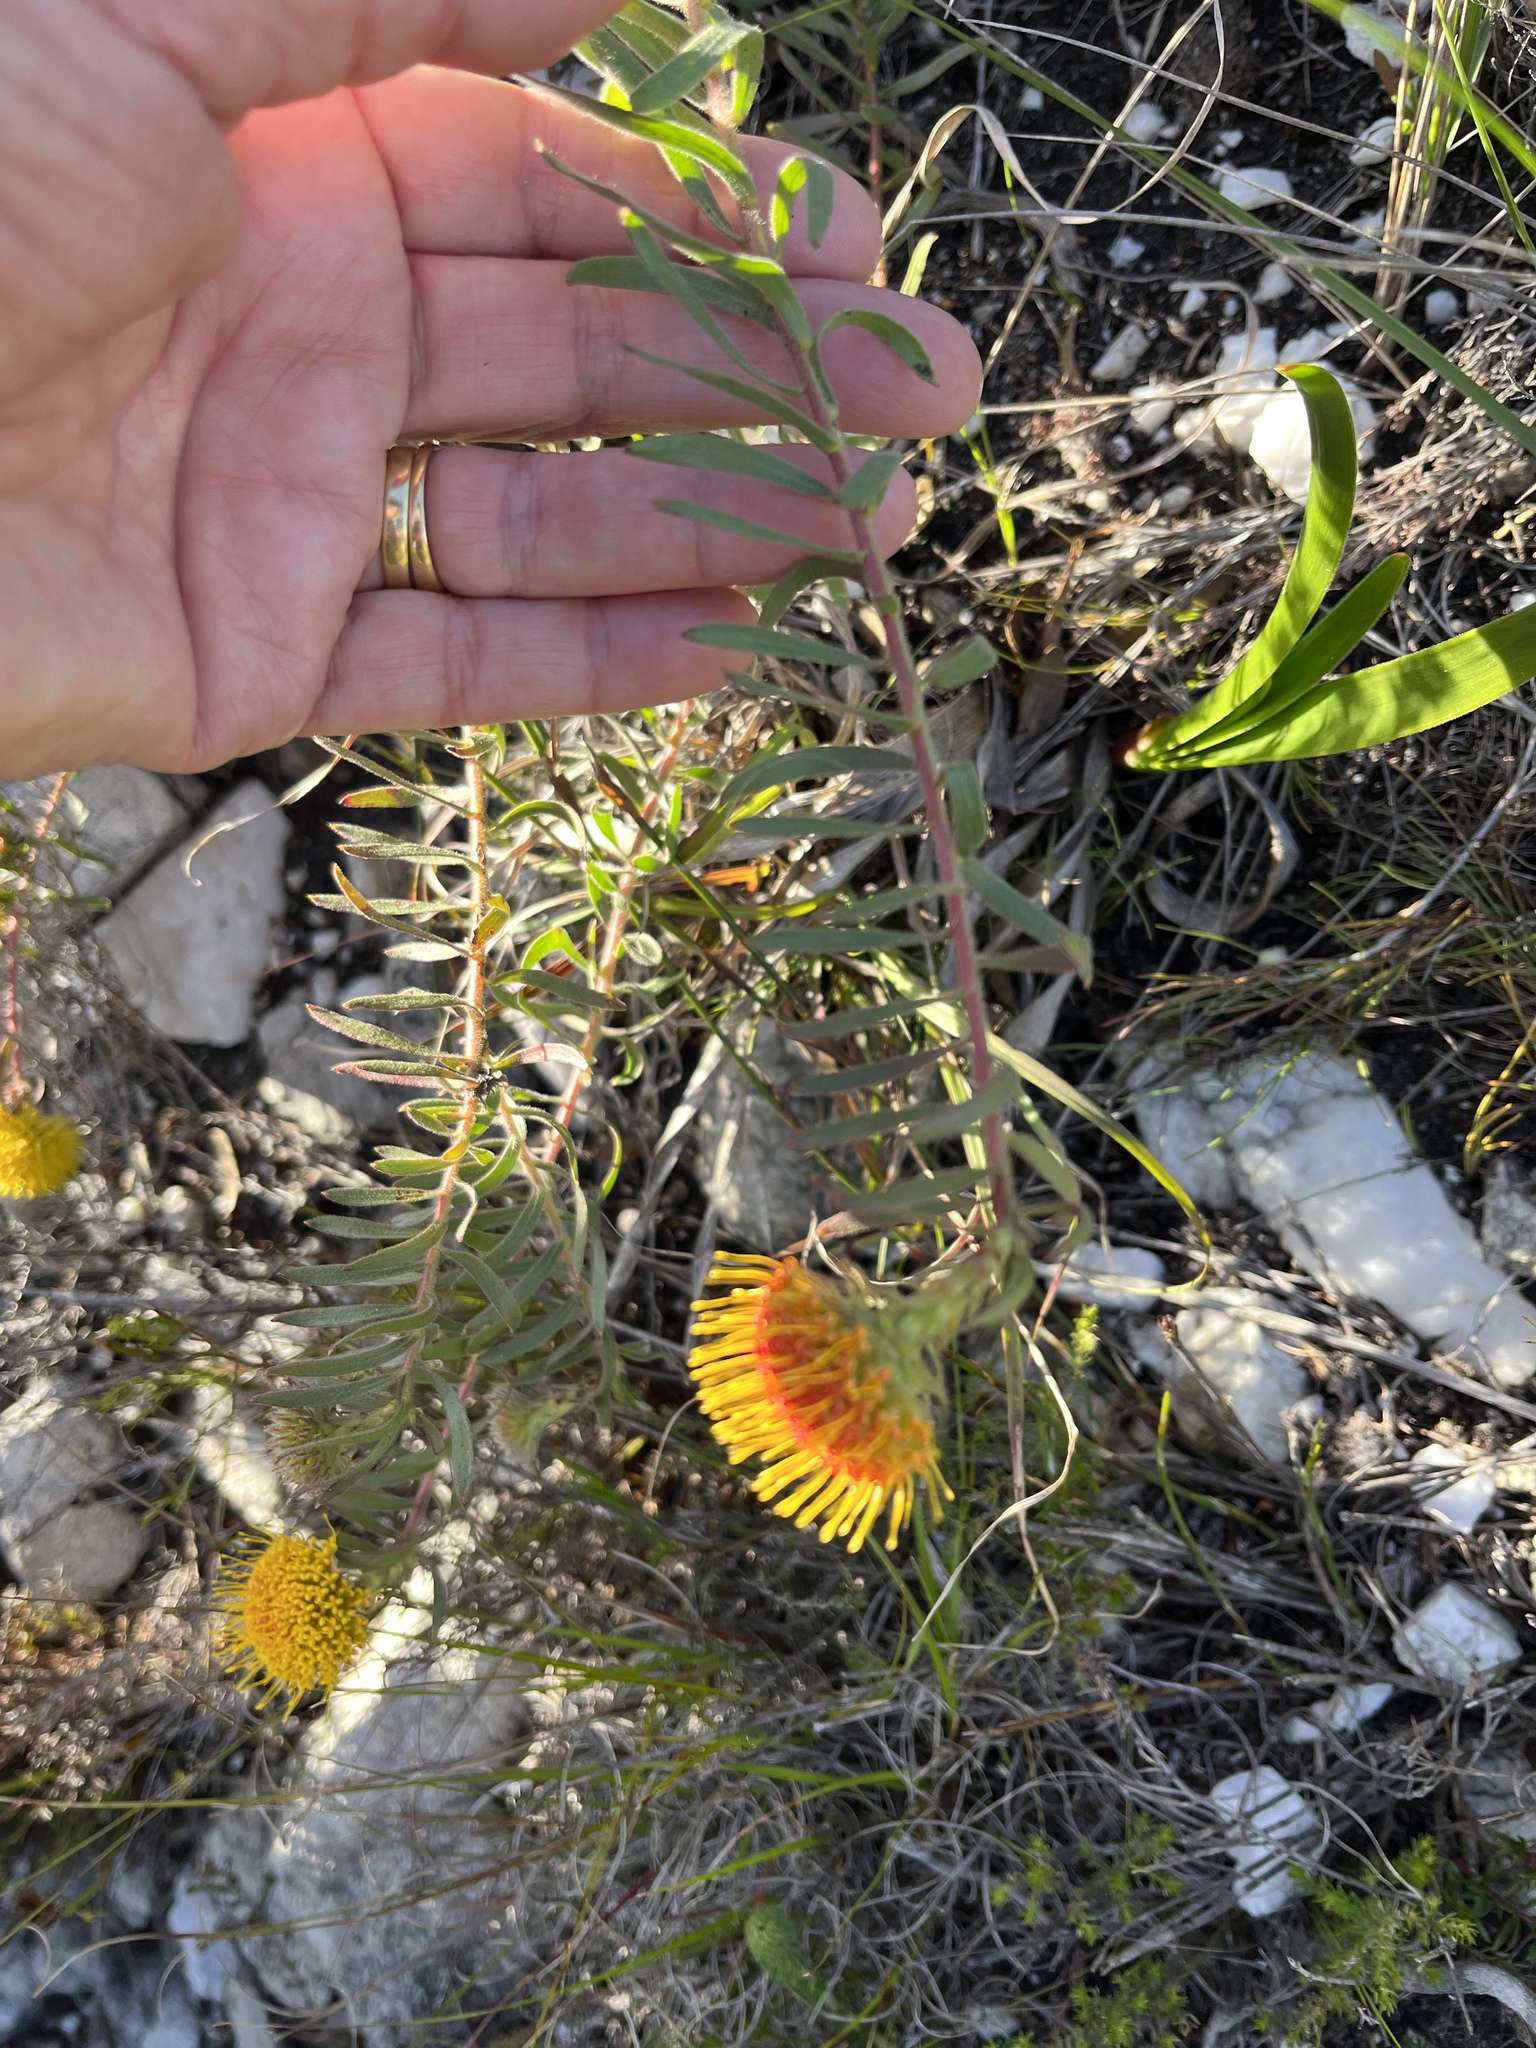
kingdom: Plantae
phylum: Tracheophyta
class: Magnoliopsida
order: Proteales
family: Proteaceae
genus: Leucospermum
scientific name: Leucospermum prostratum
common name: Yellow-trailing pincushion
